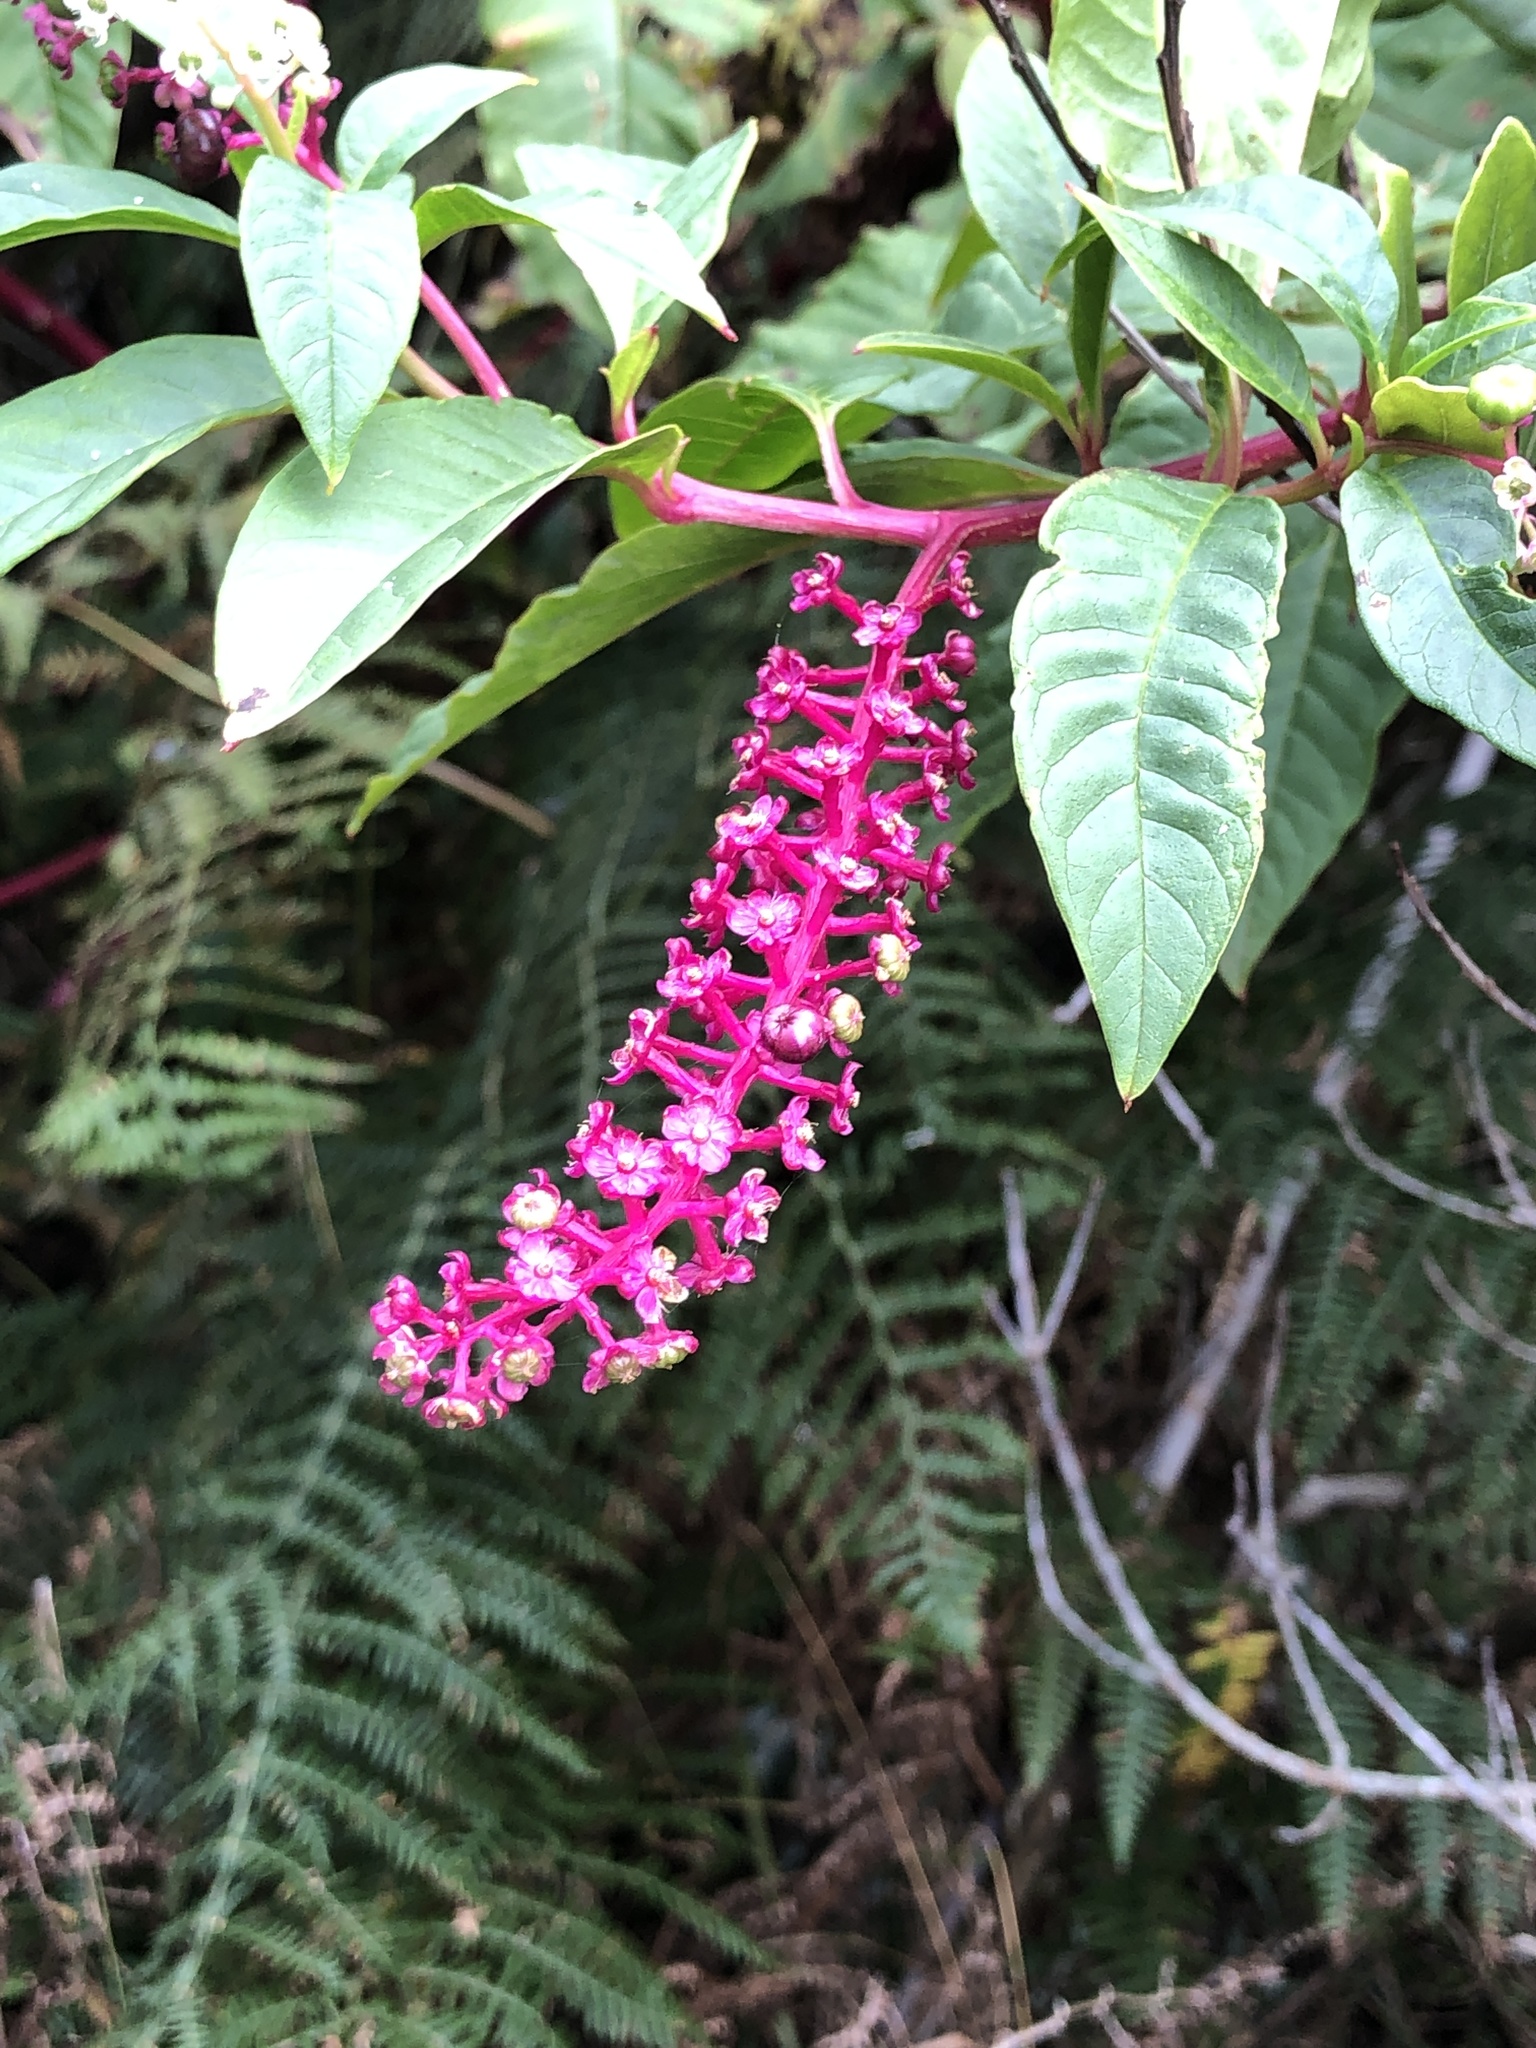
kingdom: Plantae
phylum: Tracheophyta
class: Magnoliopsida
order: Caryophyllales
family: Phytolaccaceae
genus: Phytolacca
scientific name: Phytolacca americana
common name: American pokeweed
